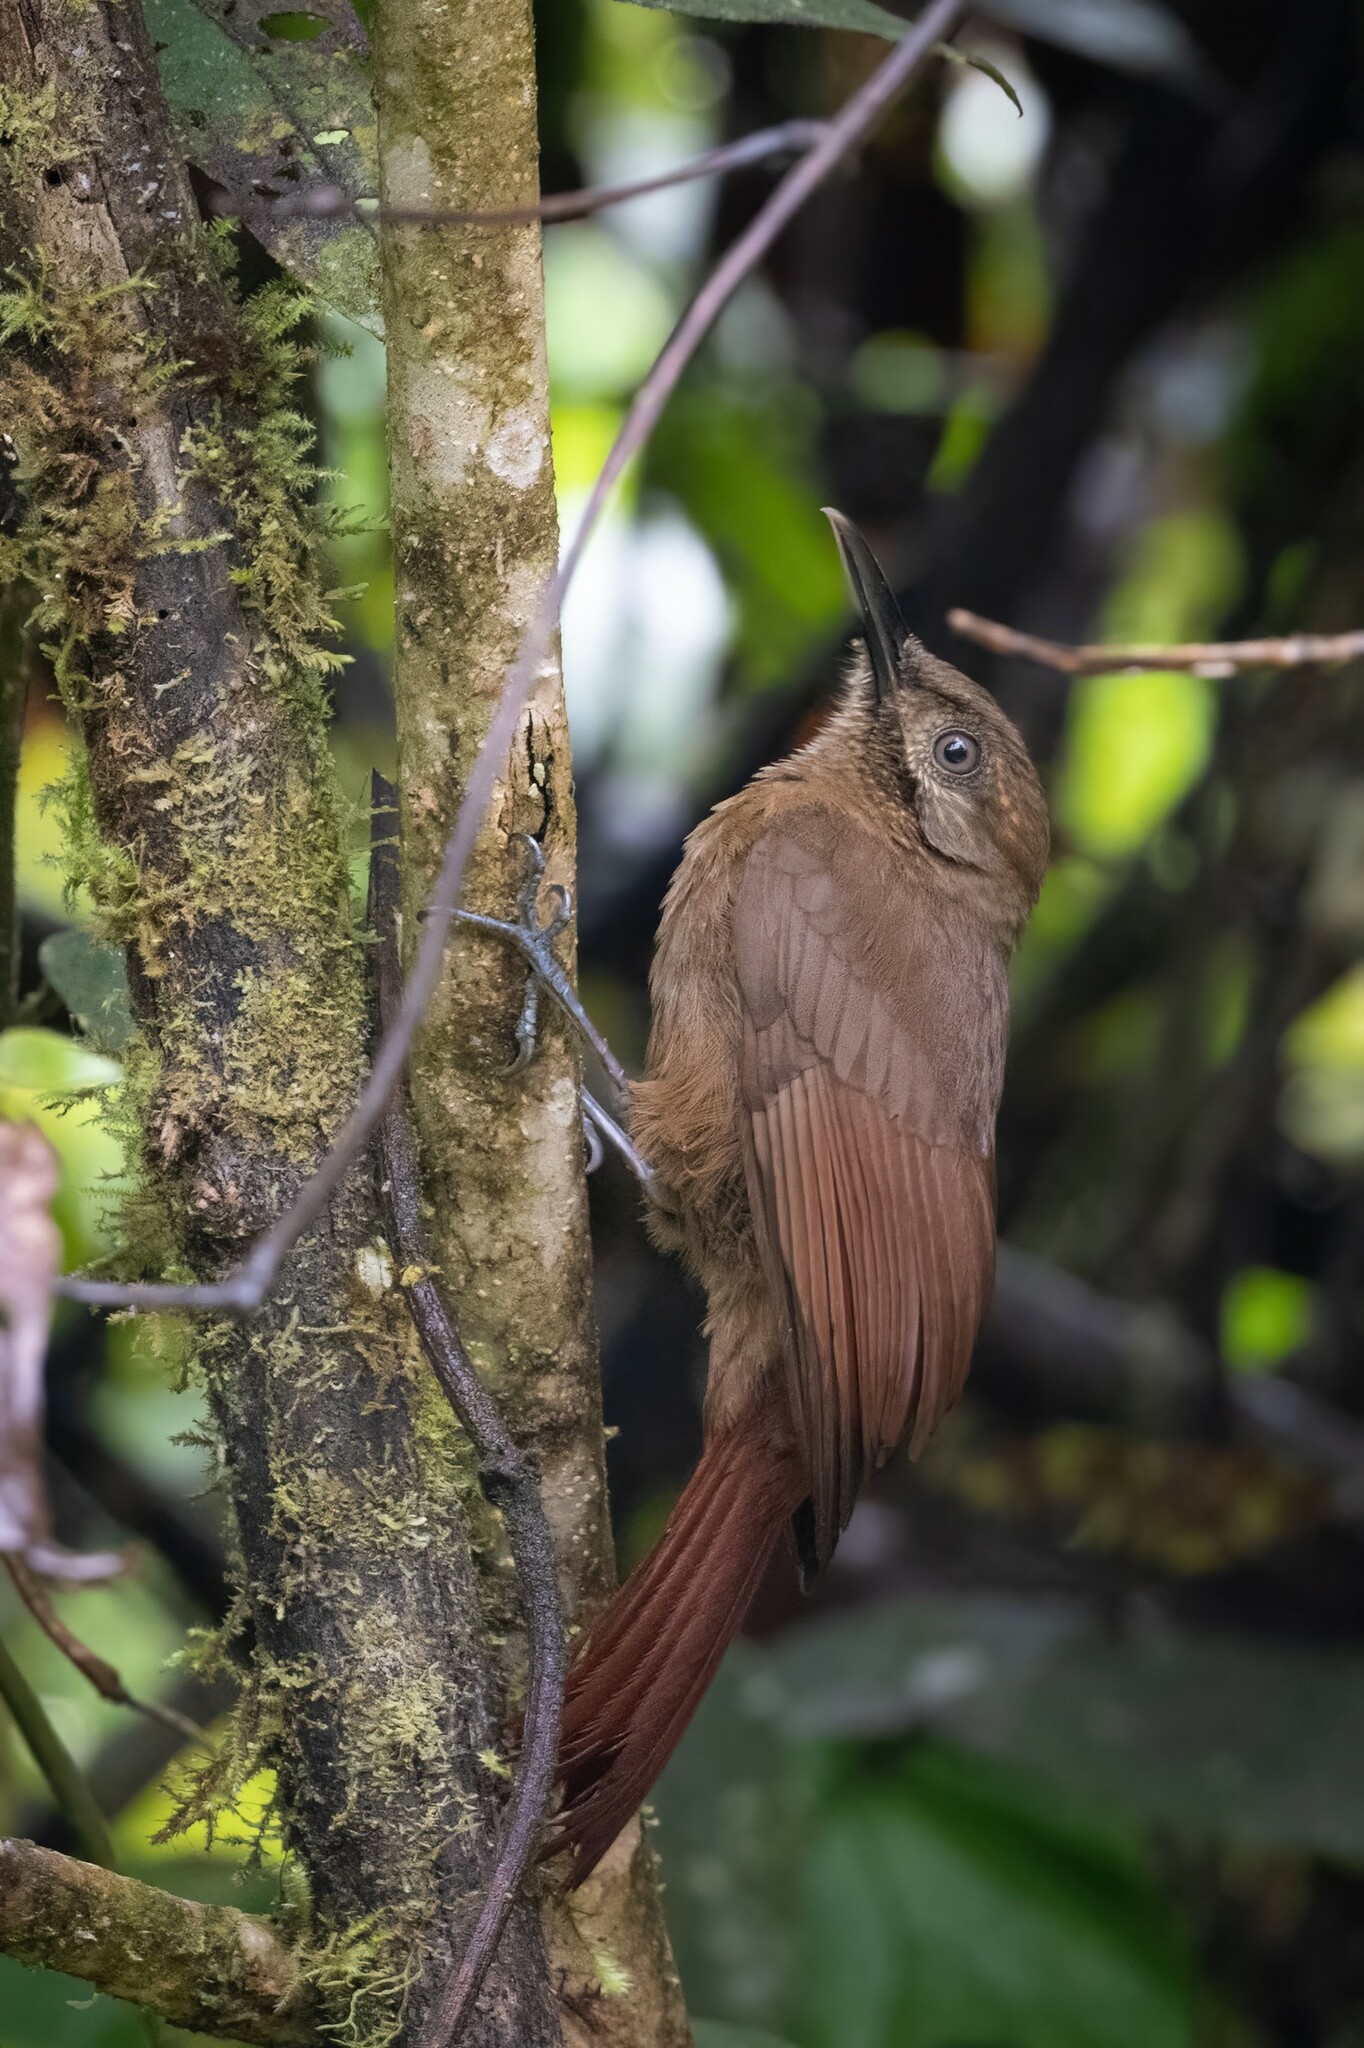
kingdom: Animalia
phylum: Chordata
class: Aves
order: Passeriformes
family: Furnariidae
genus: Dendrocincla
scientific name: Dendrocincla fuliginosa
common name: Plain-brown woodcreeper
